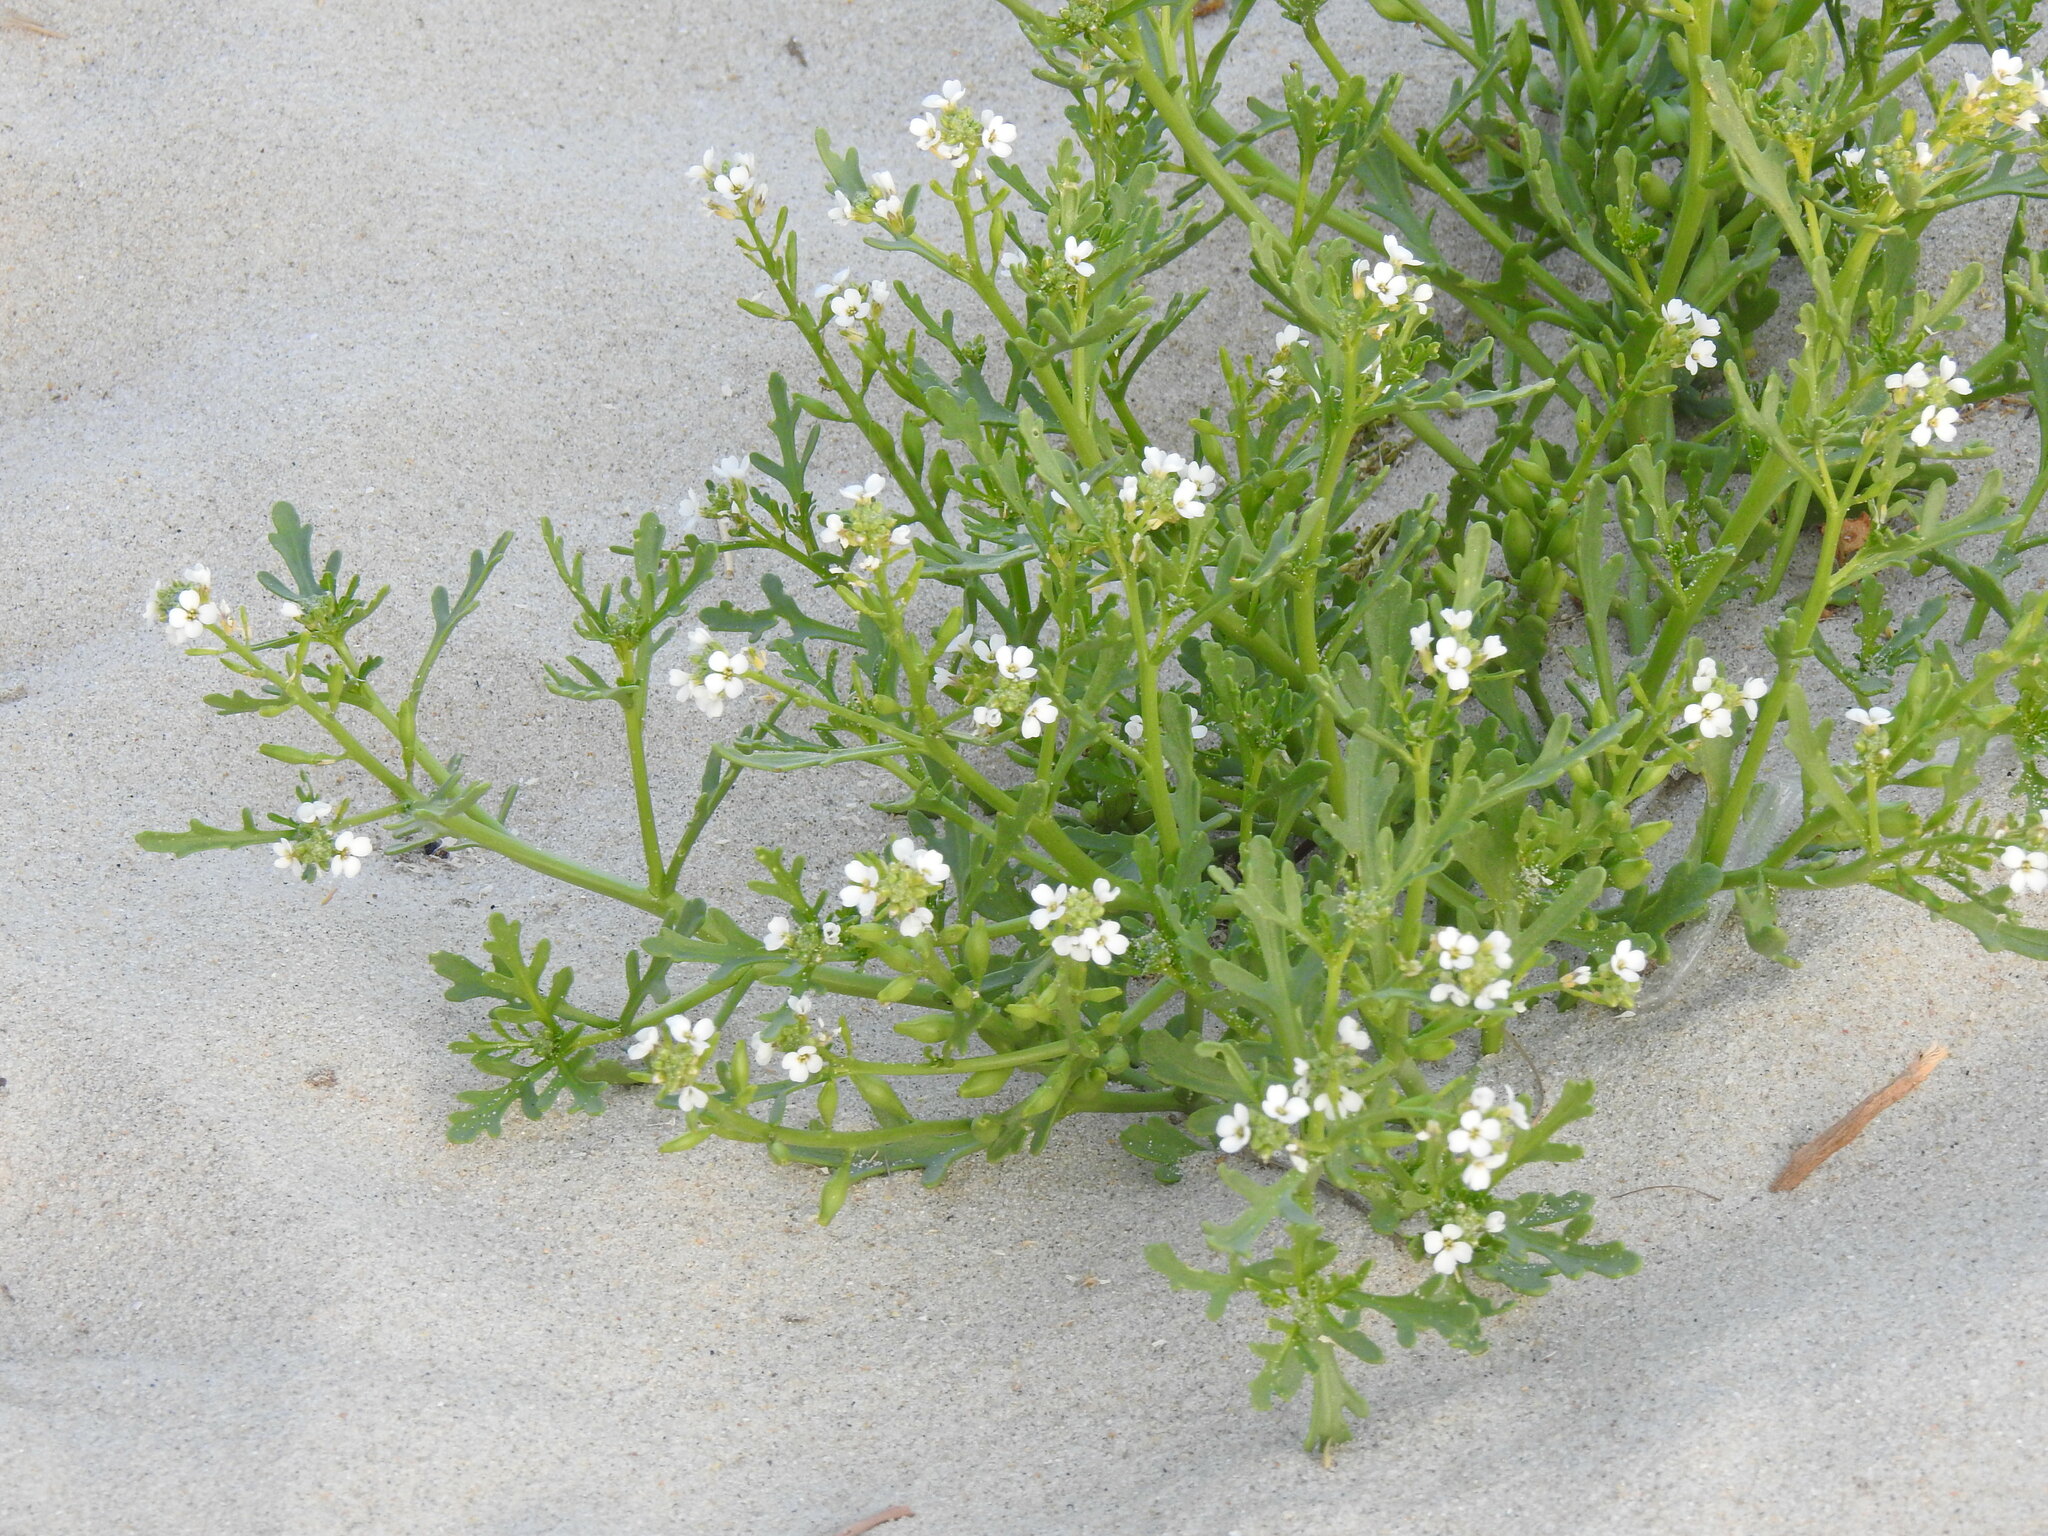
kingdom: Plantae
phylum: Tracheophyta
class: Magnoliopsida
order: Brassicales
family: Brassicaceae
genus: Cakile
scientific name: Cakile maritima
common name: Sea rocket
